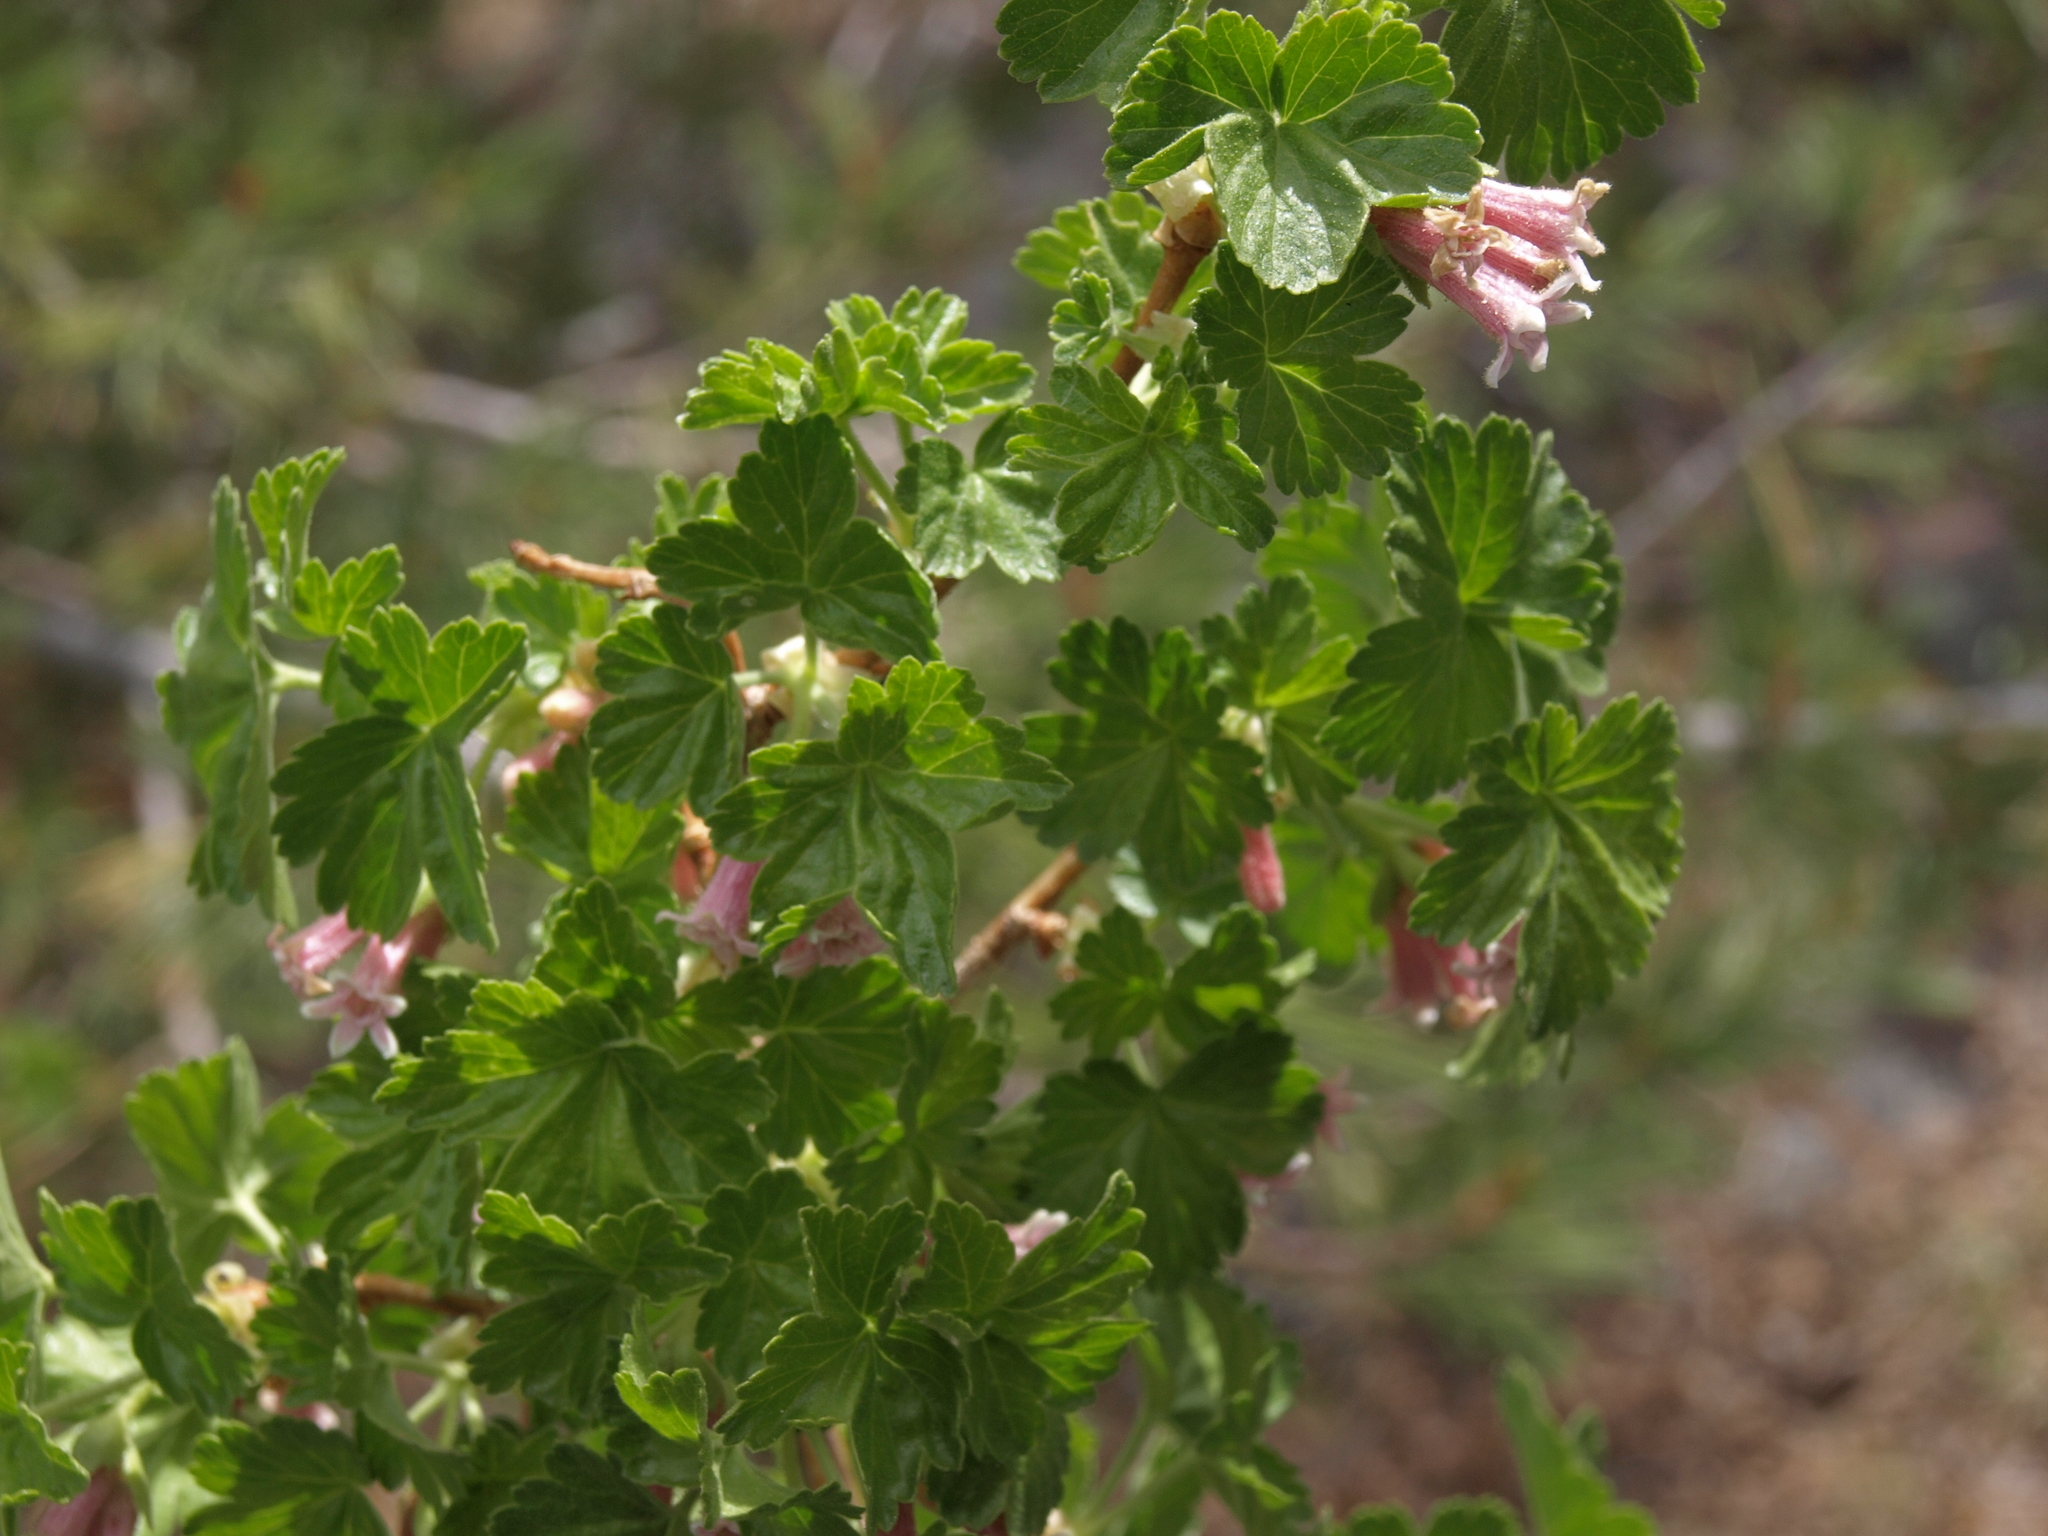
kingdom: Plantae
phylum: Tracheophyta
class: Magnoliopsida
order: Saxifragales
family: Grossulariaceae
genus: Ribes
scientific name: Ribes cereum
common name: Wax currant
